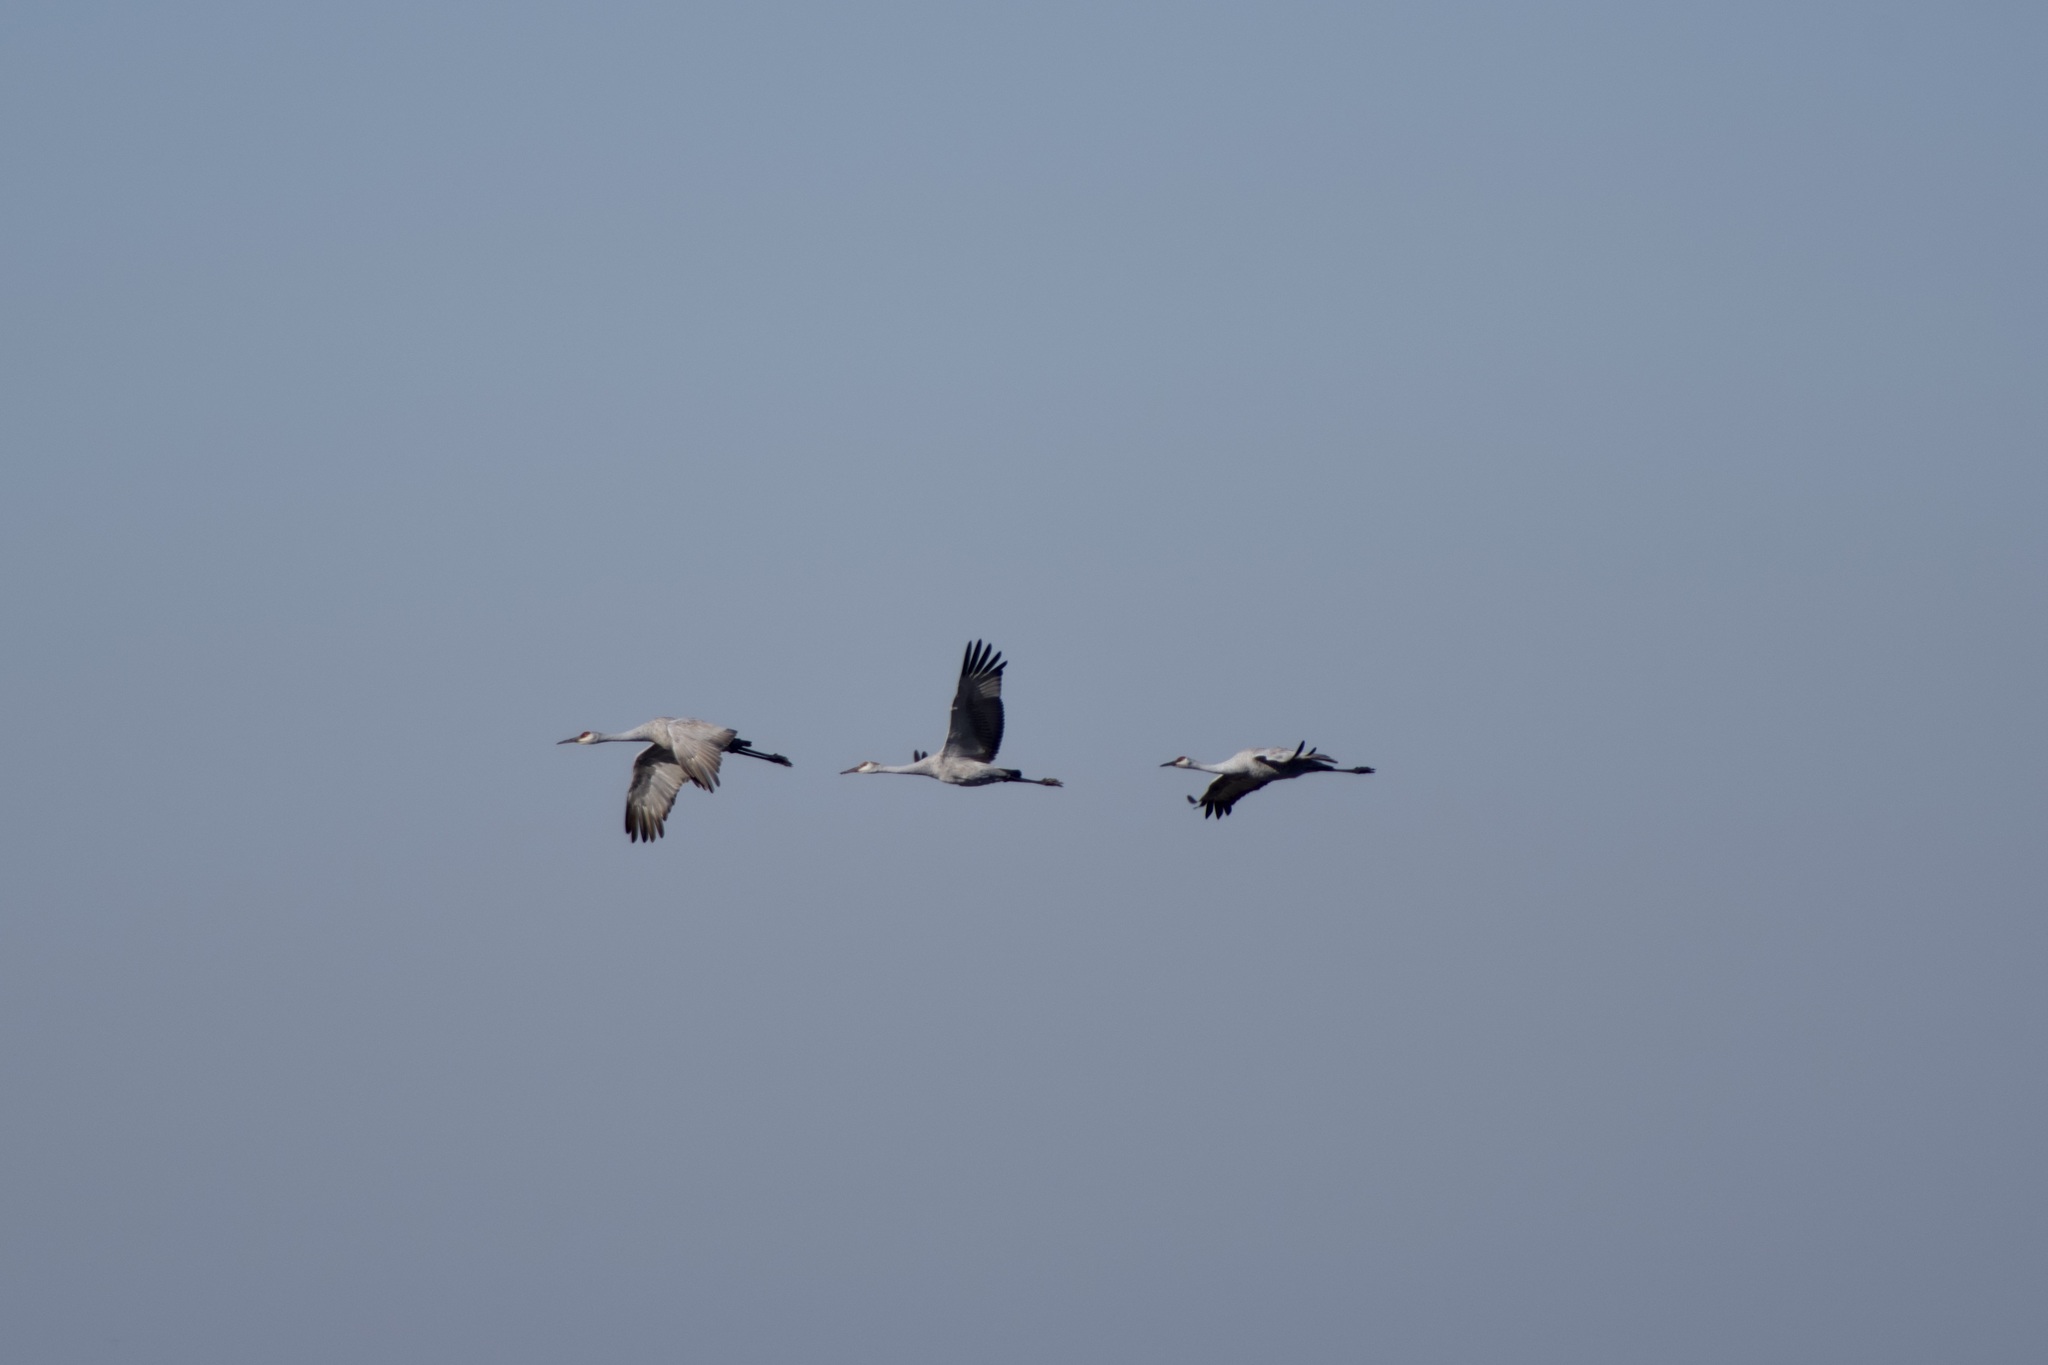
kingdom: Animalia
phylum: Chordata
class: Aves
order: Gruiformes
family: Gruidae
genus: Grus
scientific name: Grus canadensis
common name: Sandhill crane
